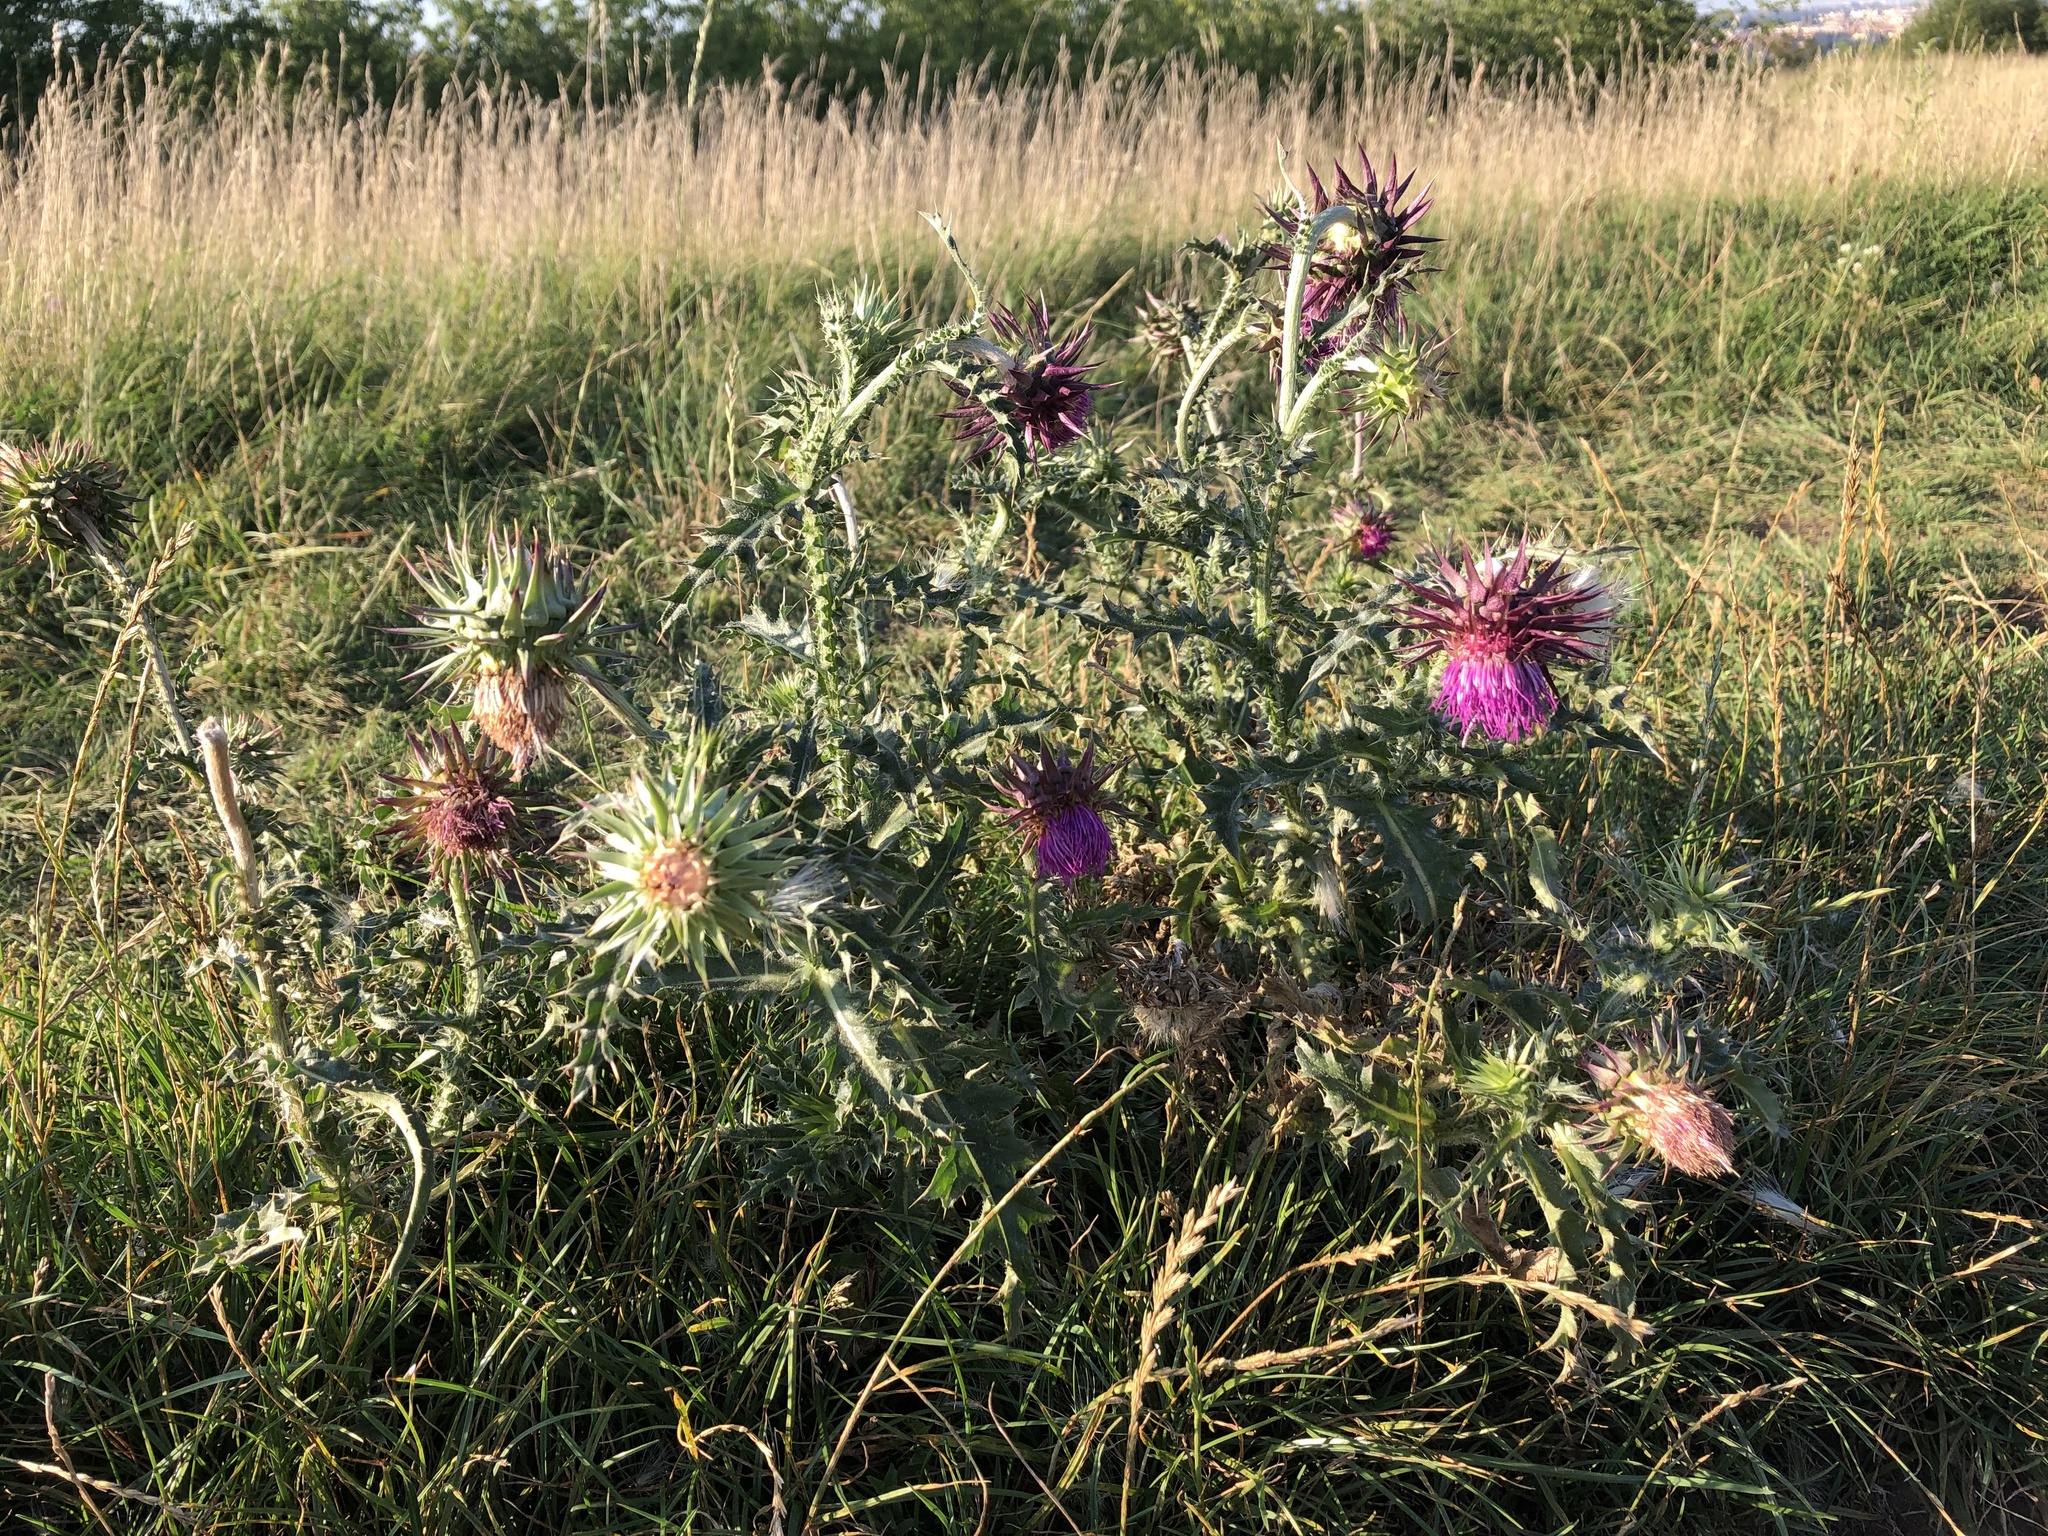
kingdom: Plantae
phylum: Tracheophyta
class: Magnoliopsida
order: Asterales
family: Asteraceae
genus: Carduus
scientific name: Carduus nutans
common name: Musk thistle
